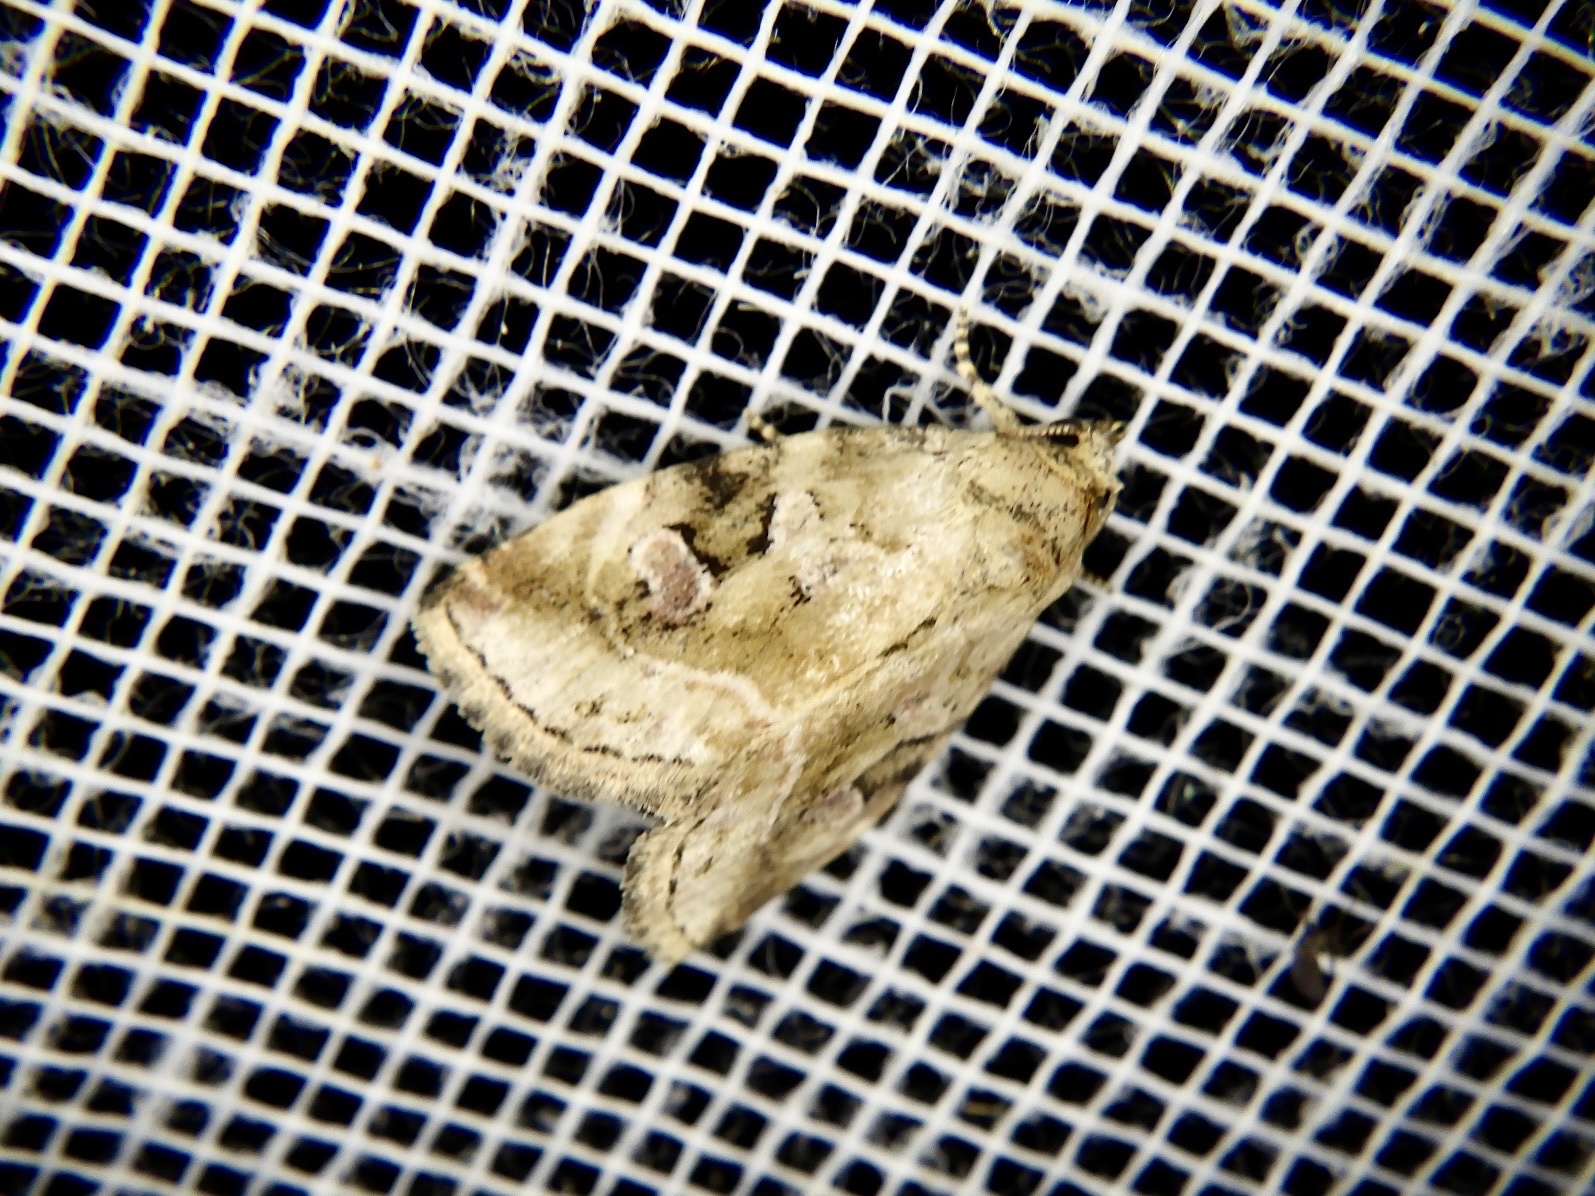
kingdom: Animalia
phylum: Arthropoda
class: Insecta
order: Lepidoptera
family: Noctuidae
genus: Pseudodeltote
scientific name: Pseudodeltote
